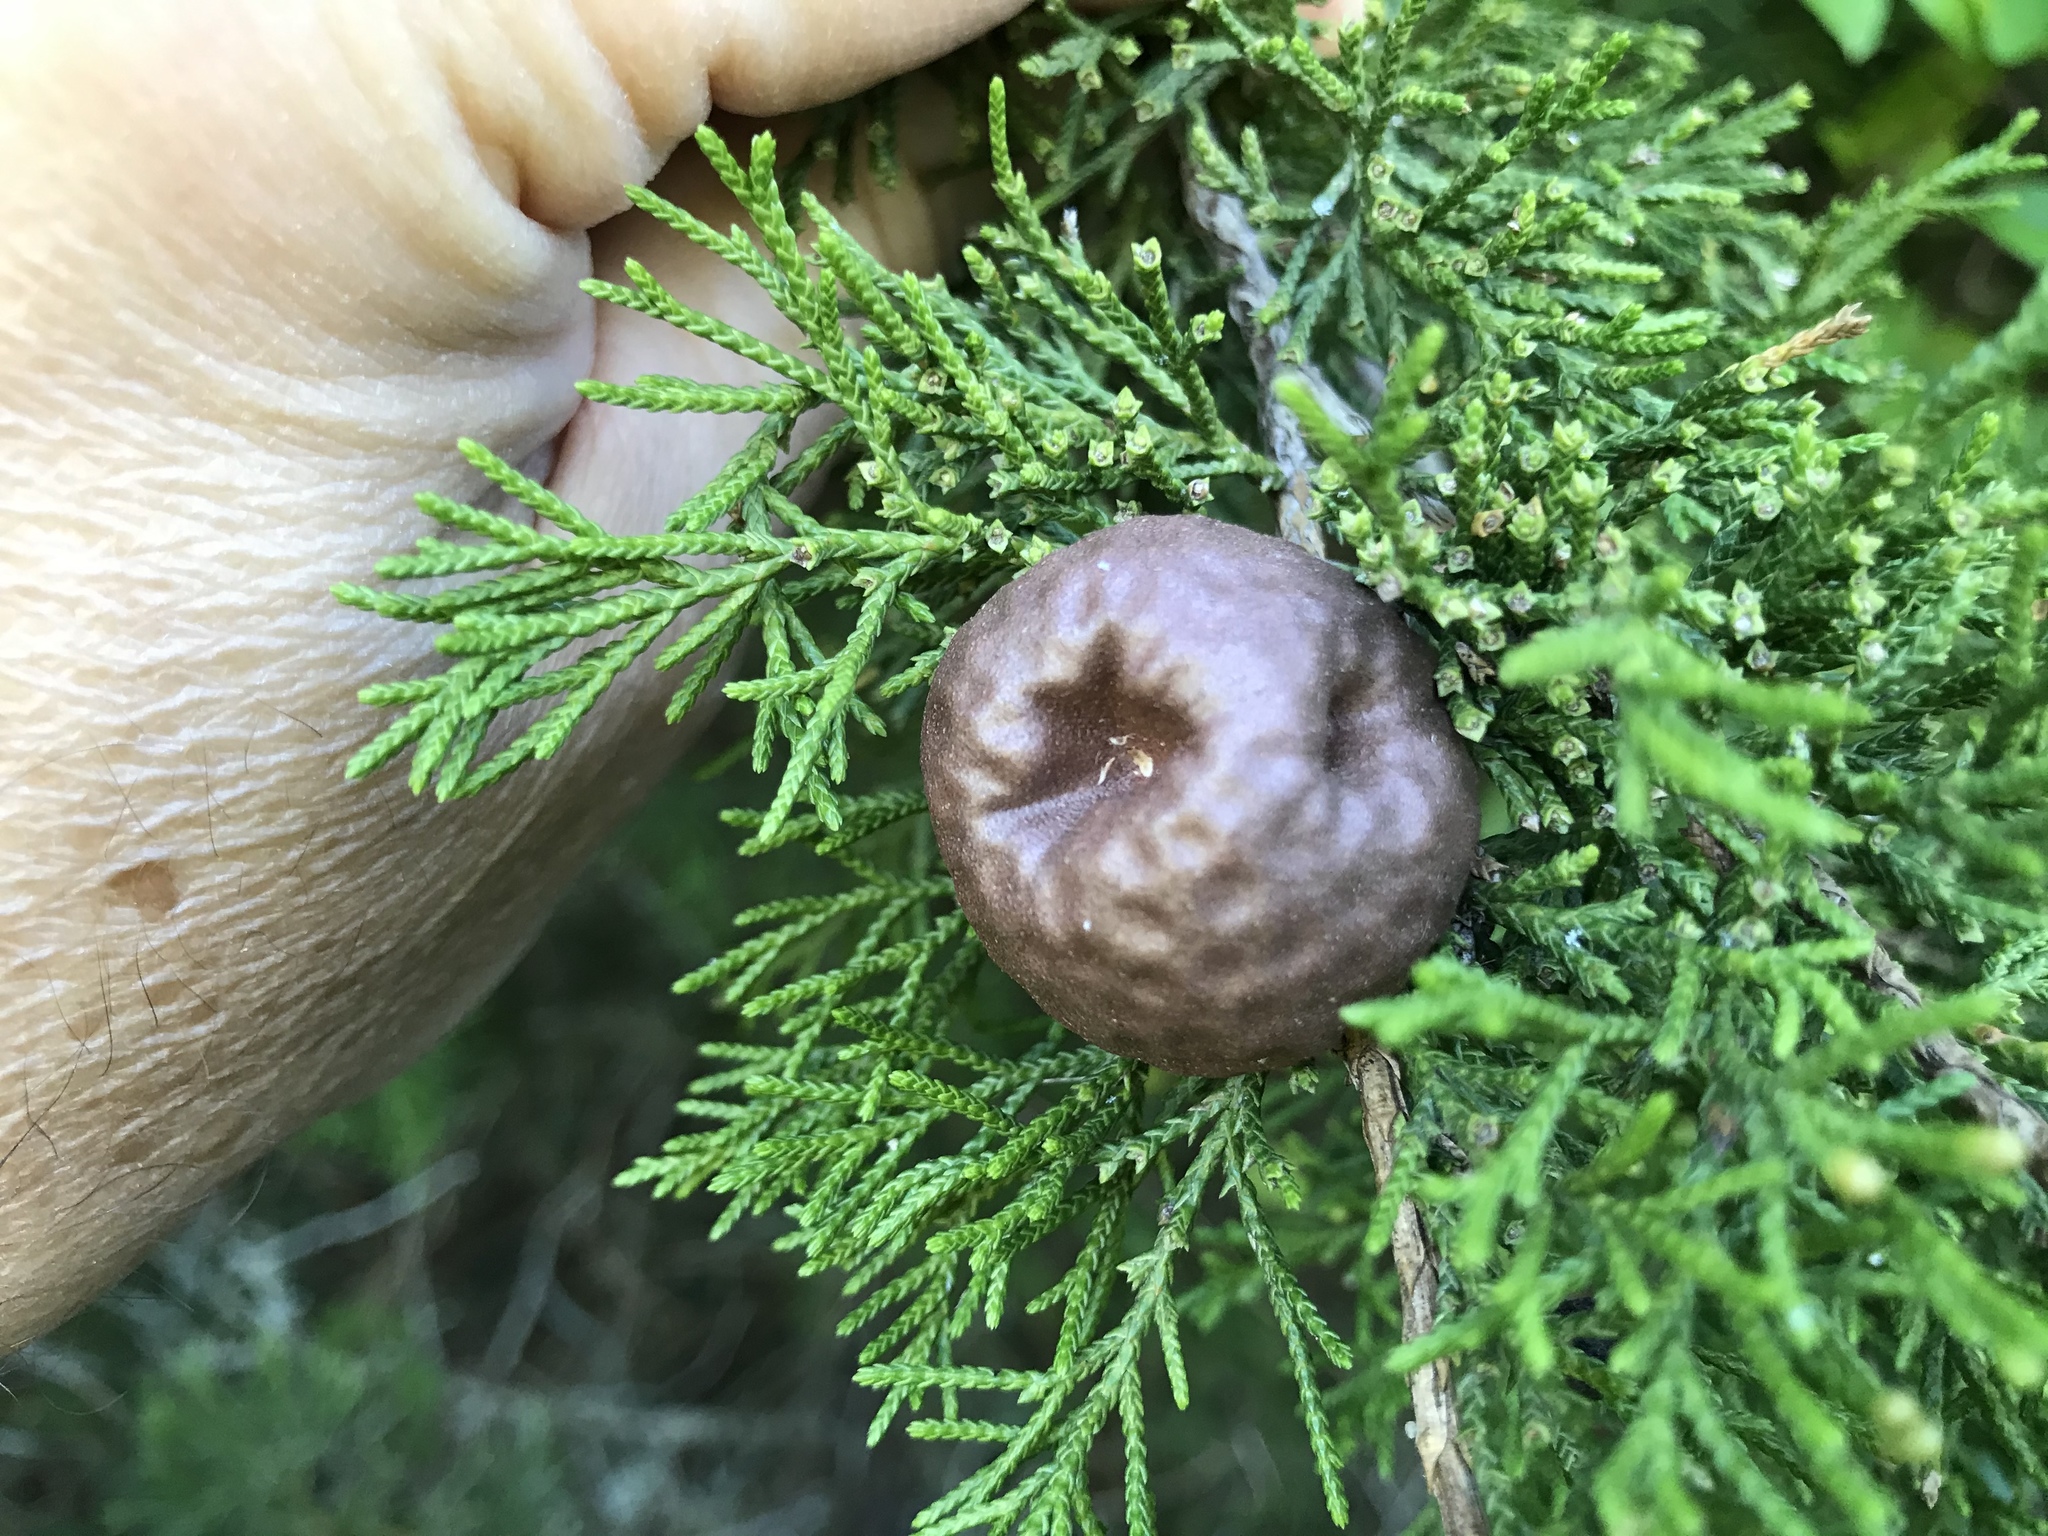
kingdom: Fungi
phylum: Basidiomycota
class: Pucciniomycetes
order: Pucciniales
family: Gymnosporangiaceae
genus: Gymnosporangium
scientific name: Gymnosporangium juniperi-virginianae
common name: Juniper-apple rust
